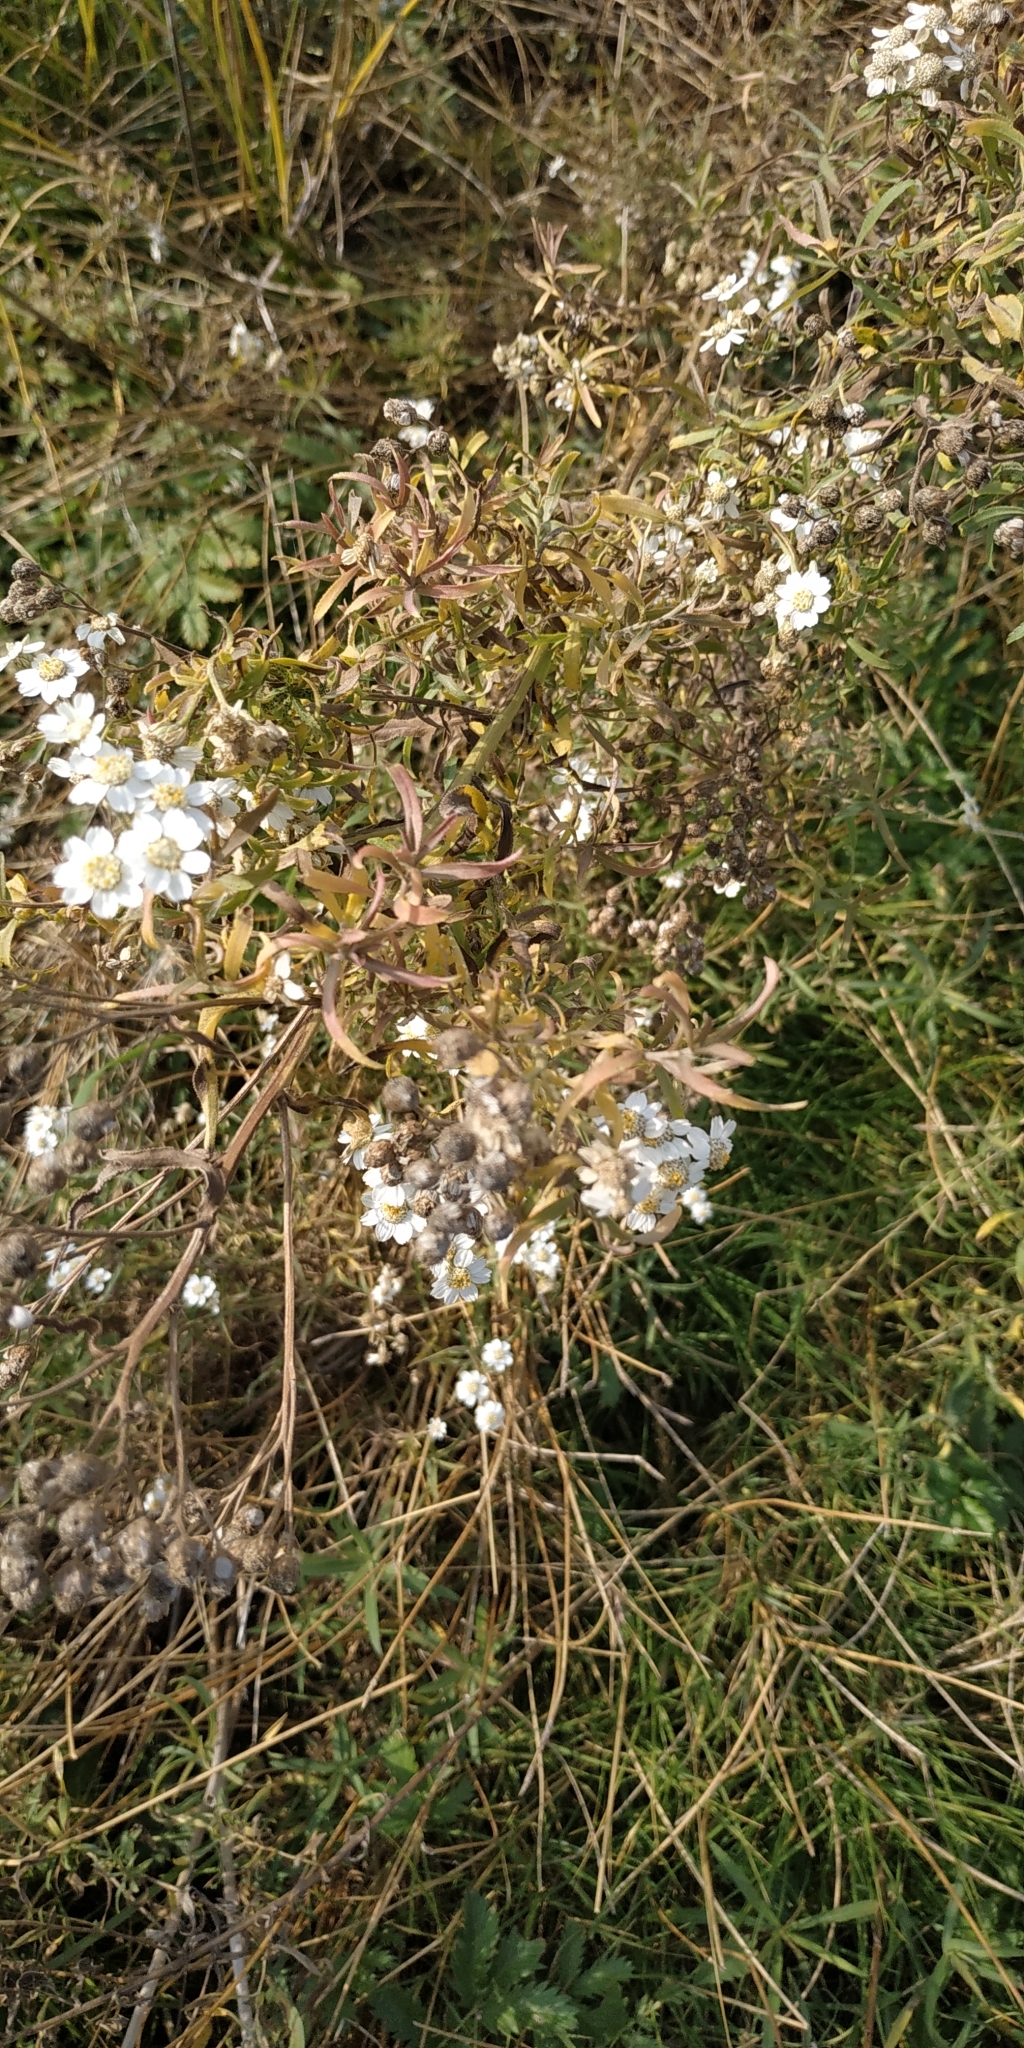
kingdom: Plantae
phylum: Tracheophyta
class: Magnoliopsida
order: Asterales
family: Asteraceae
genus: Achillea
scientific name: Achillea salicifolia
